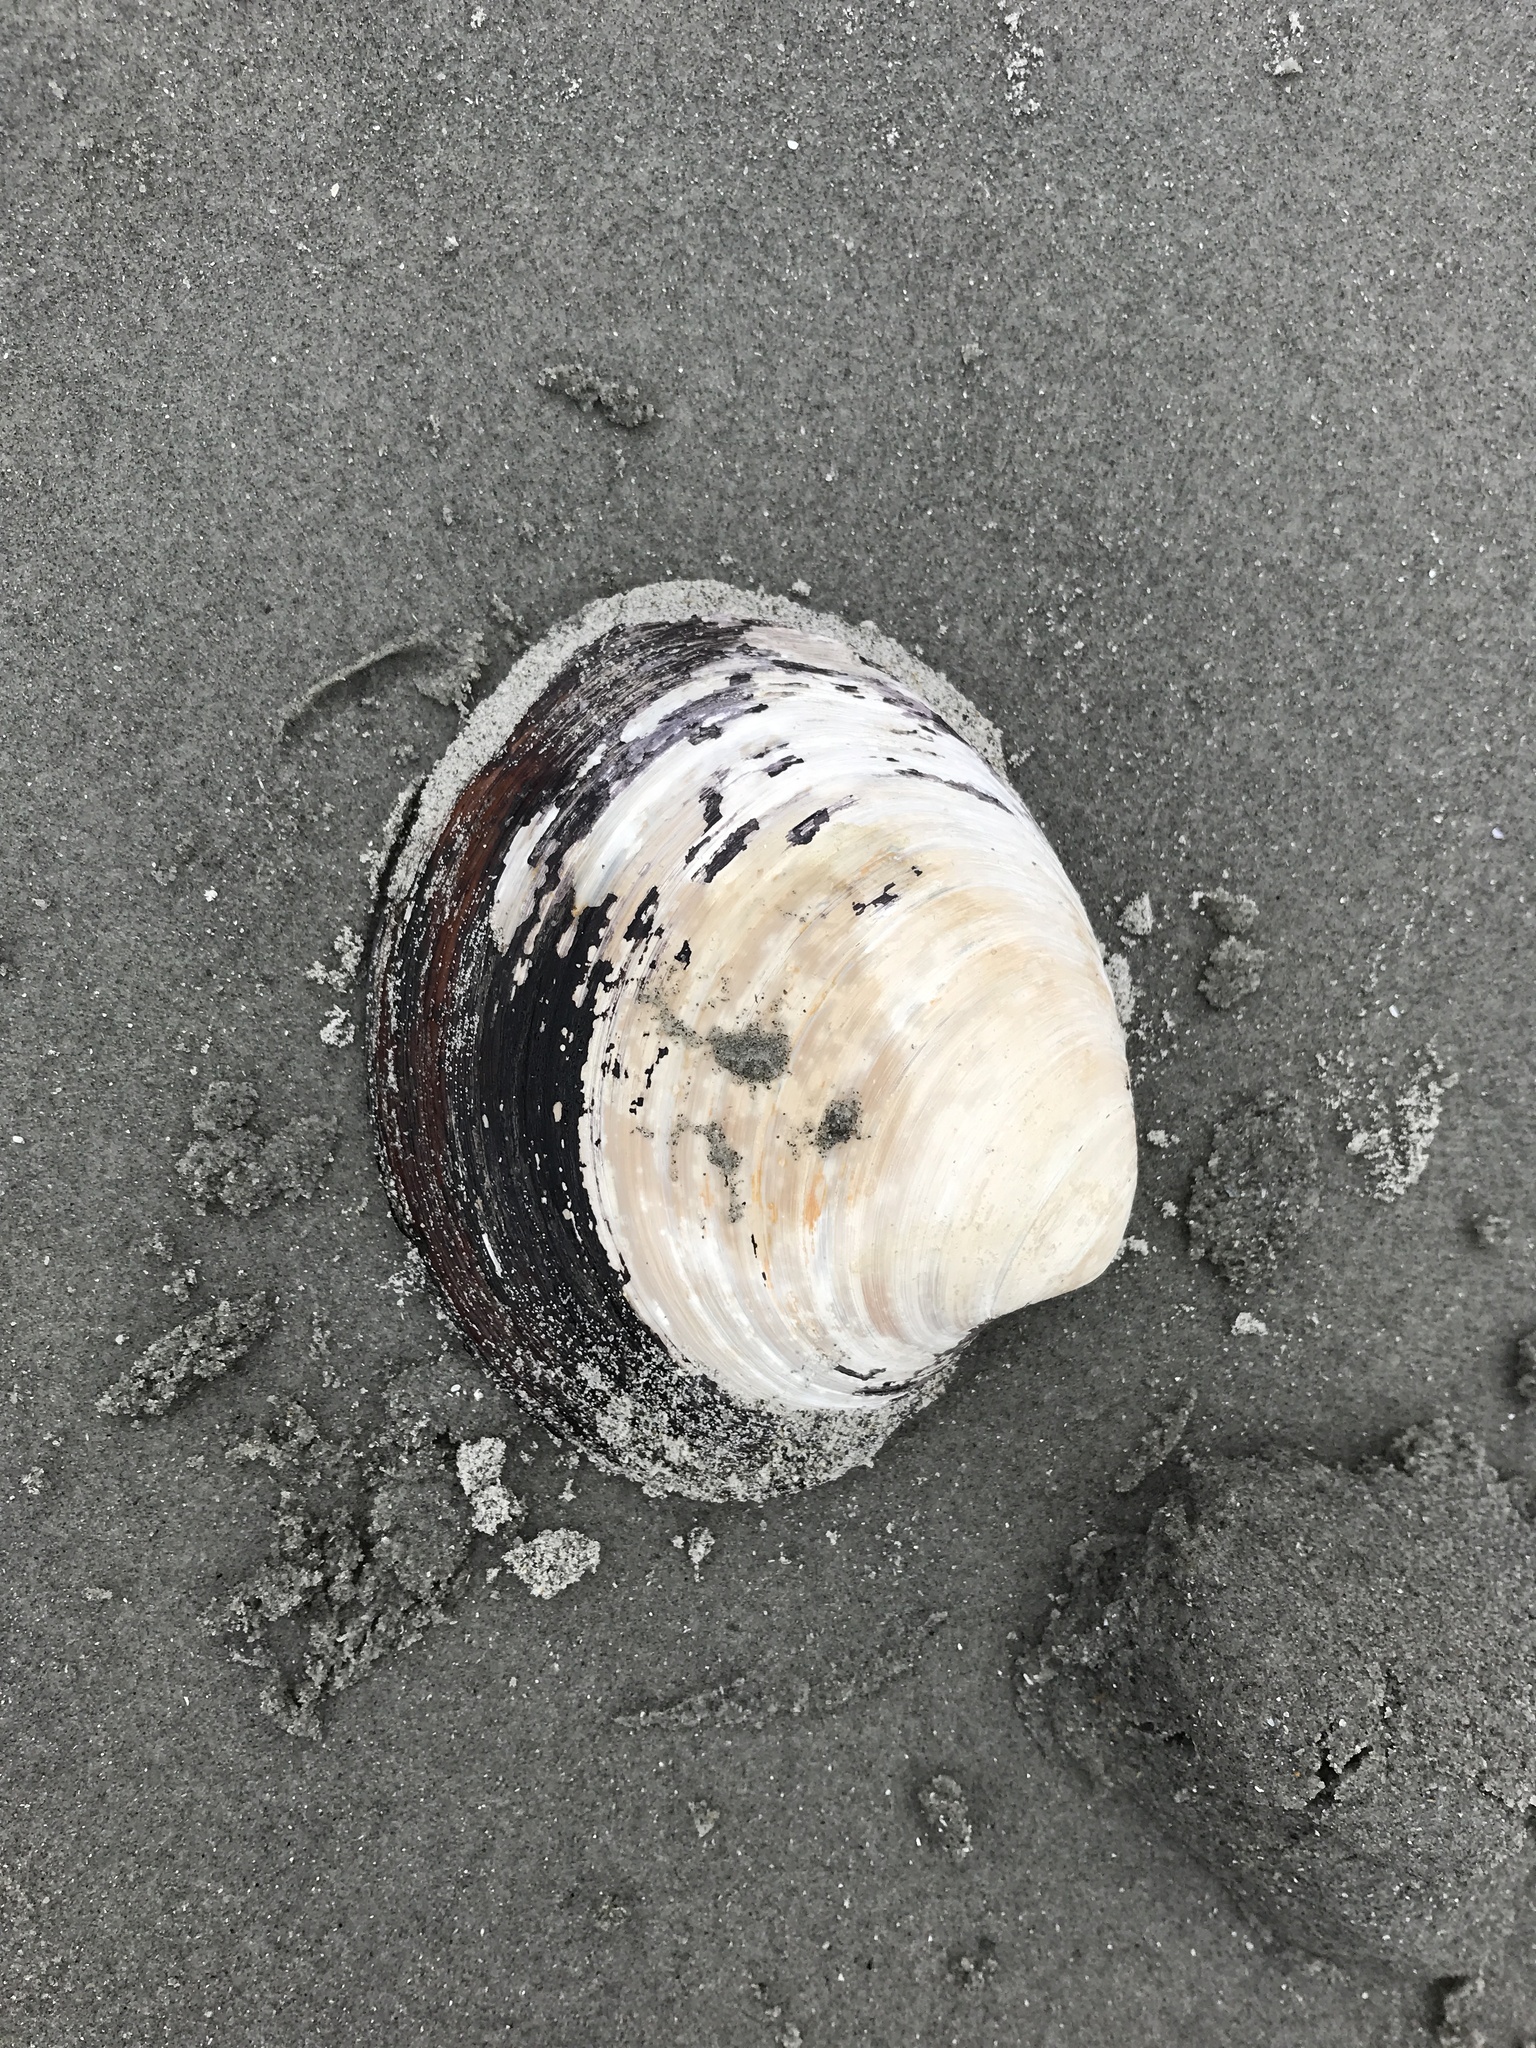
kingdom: Animalia
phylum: Mollusca
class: Bivalvia
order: Venerida
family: Arcticidae
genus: Arctica
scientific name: Arctica islandica
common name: Icelandic cyprine
